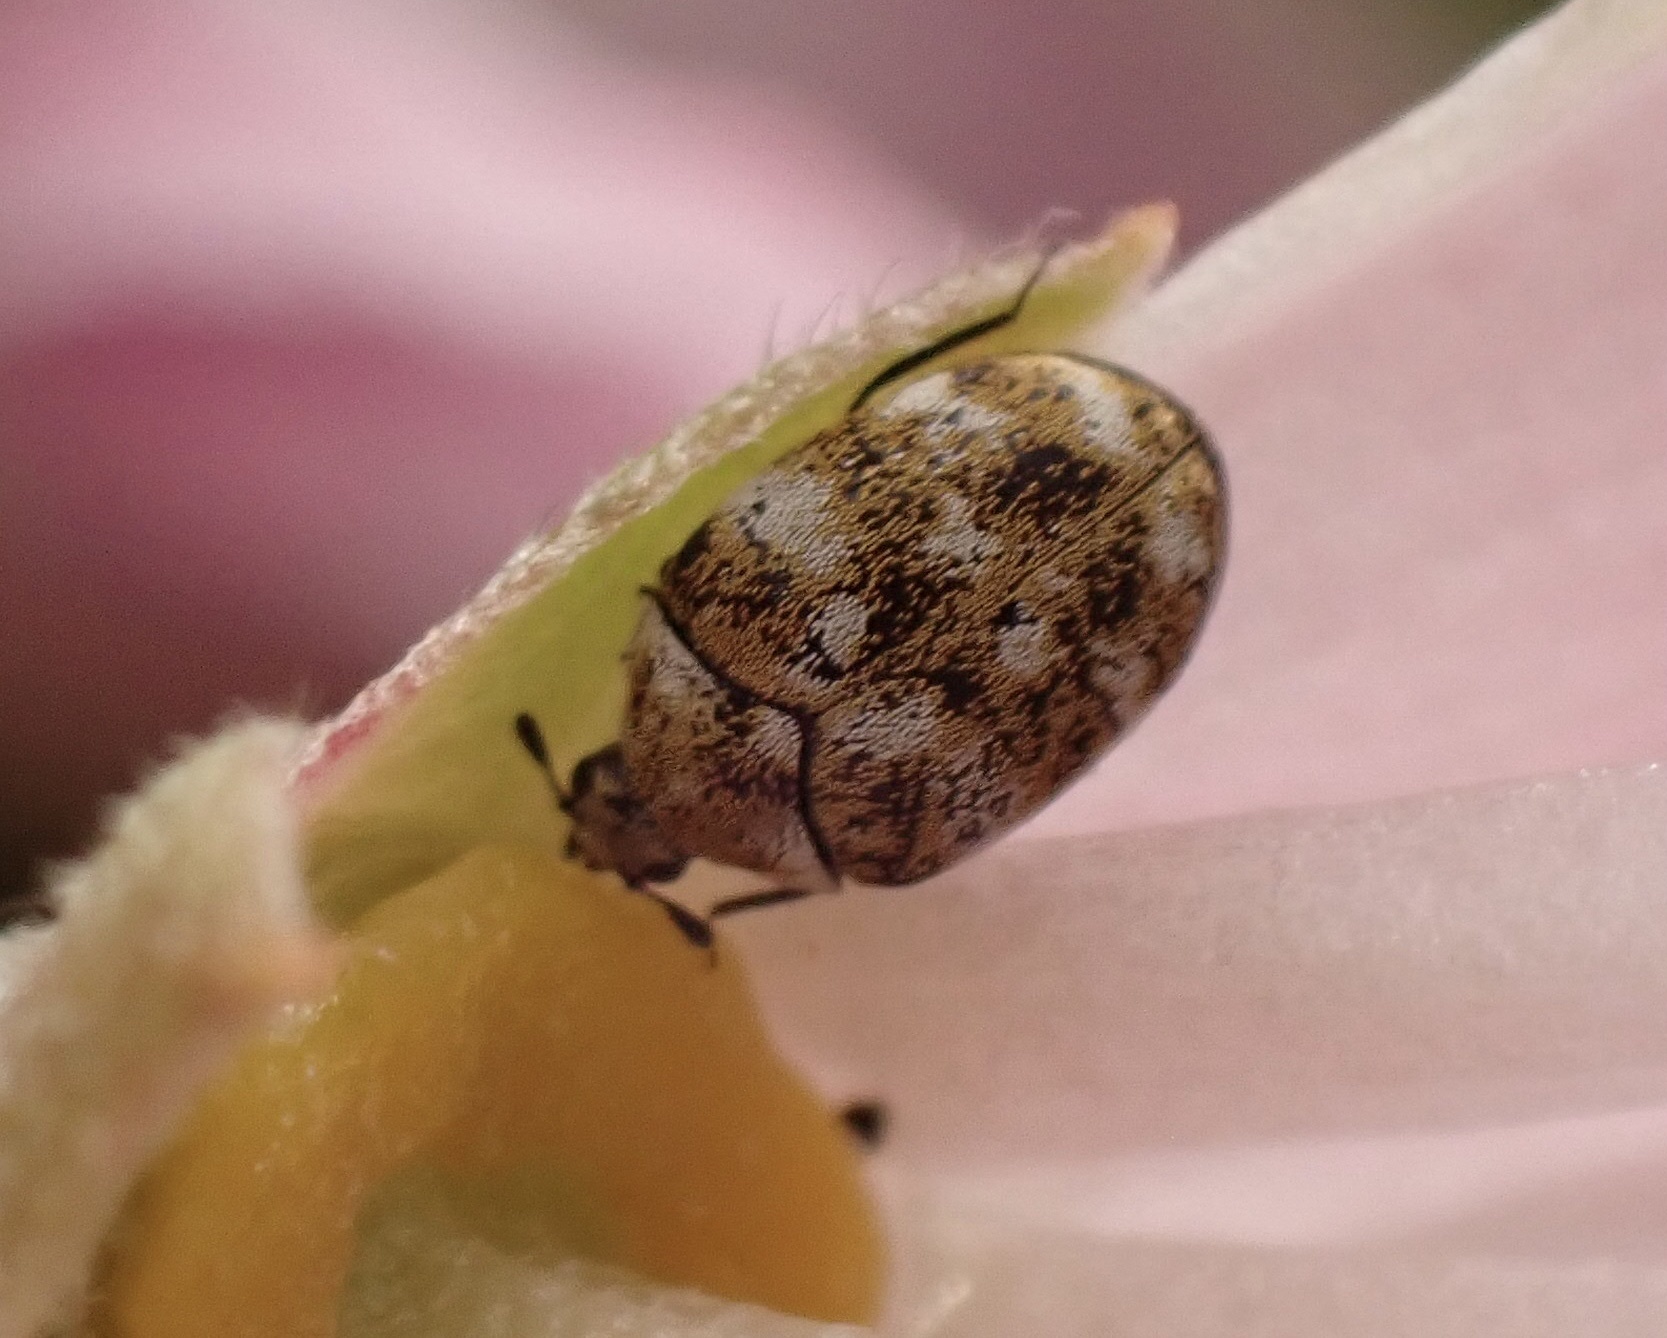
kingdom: Animalia
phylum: Arthropoda
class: Insecta
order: Coleoptera
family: Dermestidae
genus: Anthrenus
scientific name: Anthrenus verbasci
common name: Varied carpet beetle
